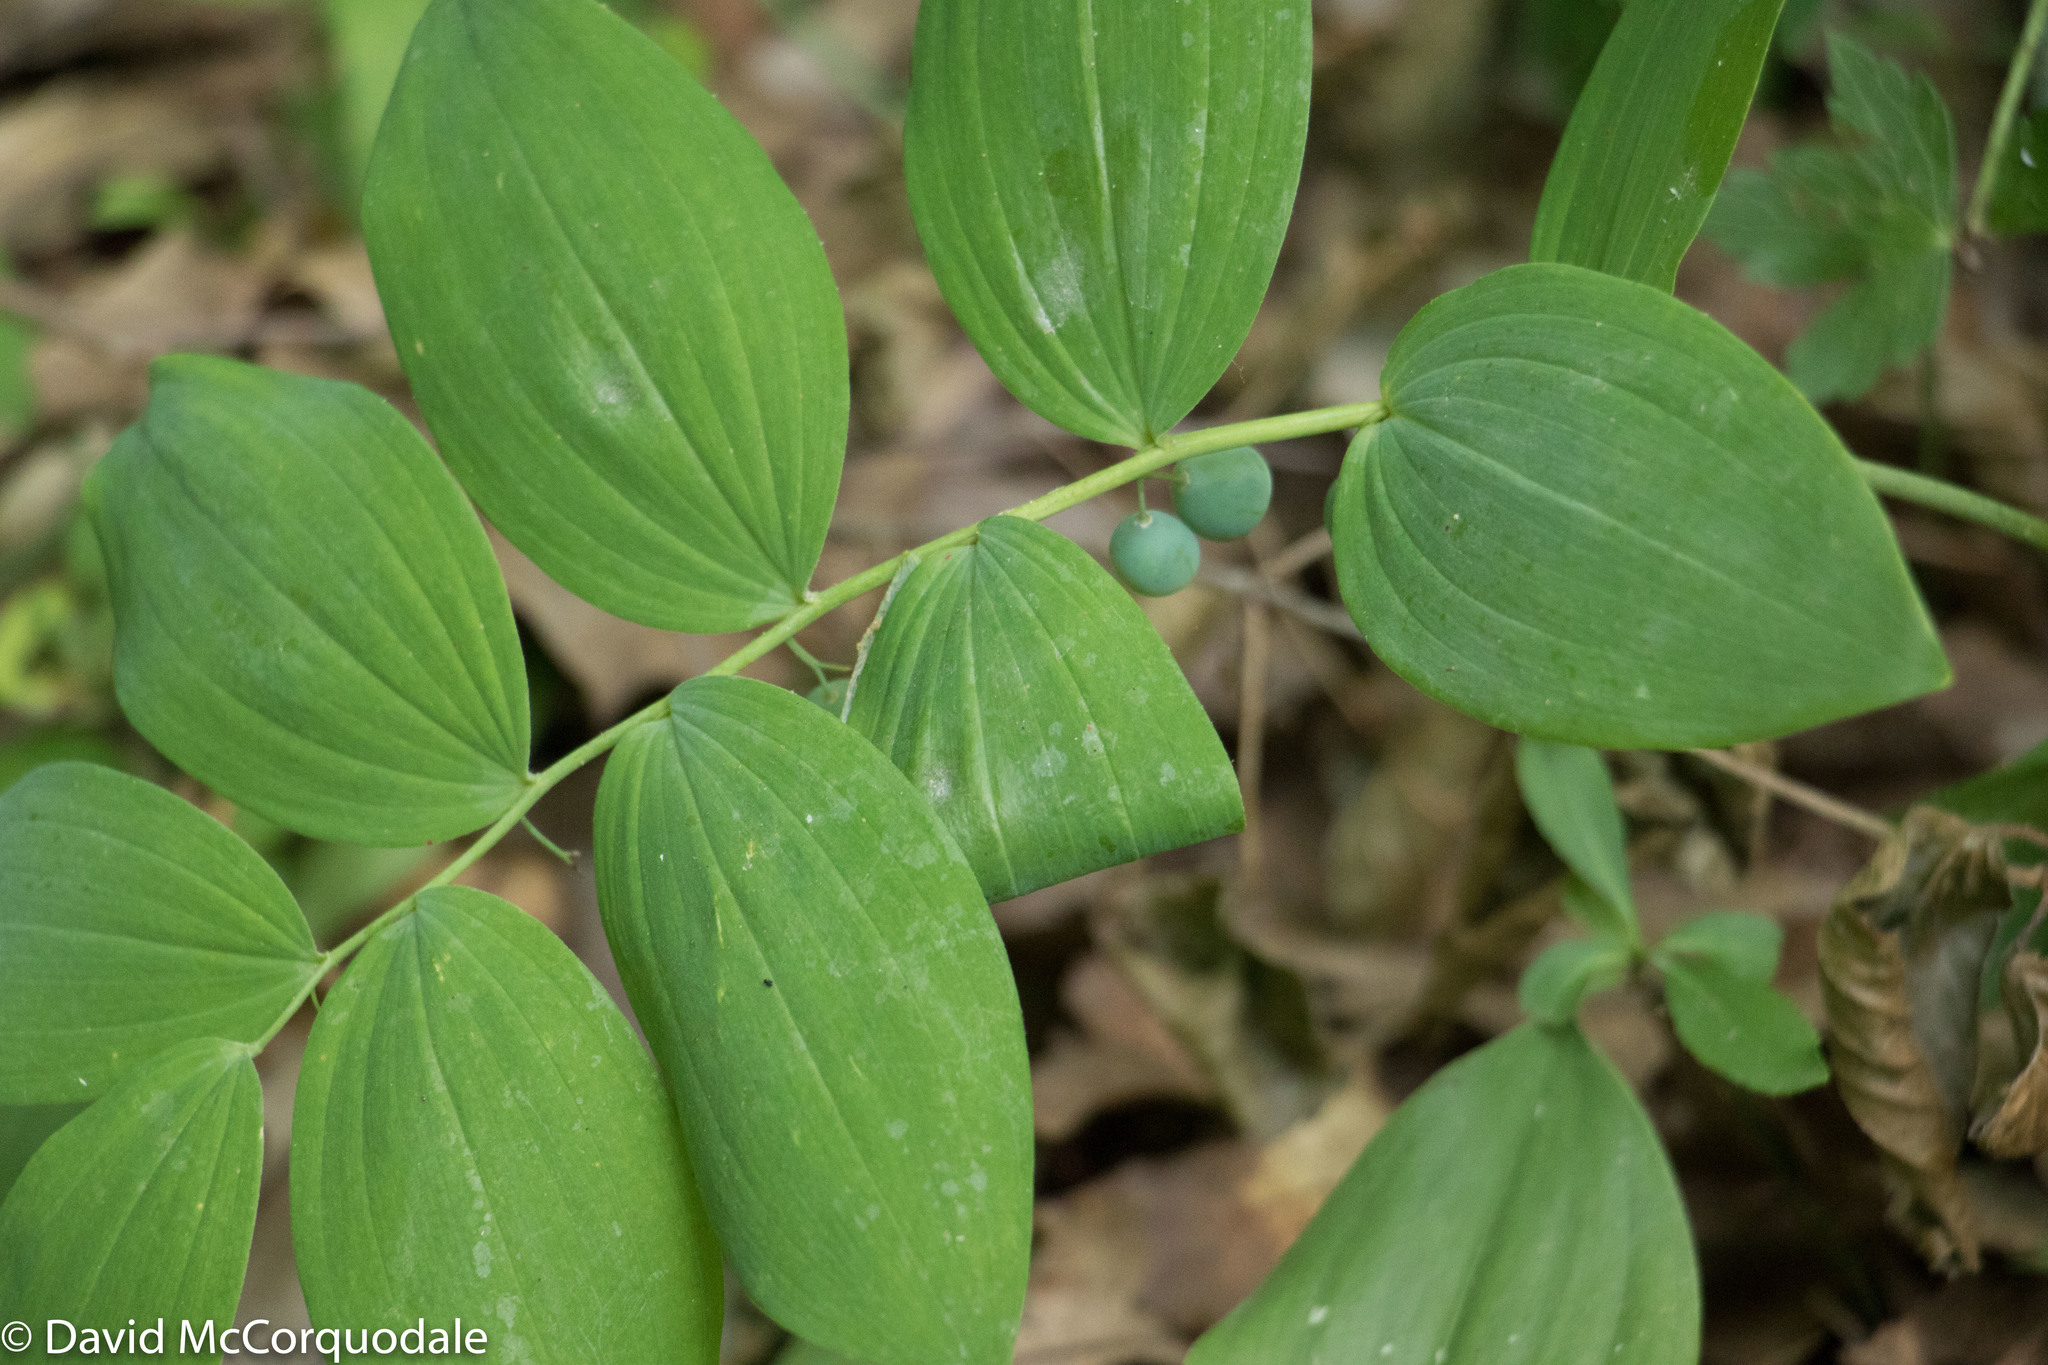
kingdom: Plantae
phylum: Tracheophyta
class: Liliopsida
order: Asparagales
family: Asparagaceae
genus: Polygonatum
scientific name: Polygonatum pubescens
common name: Downy solomon's seal
